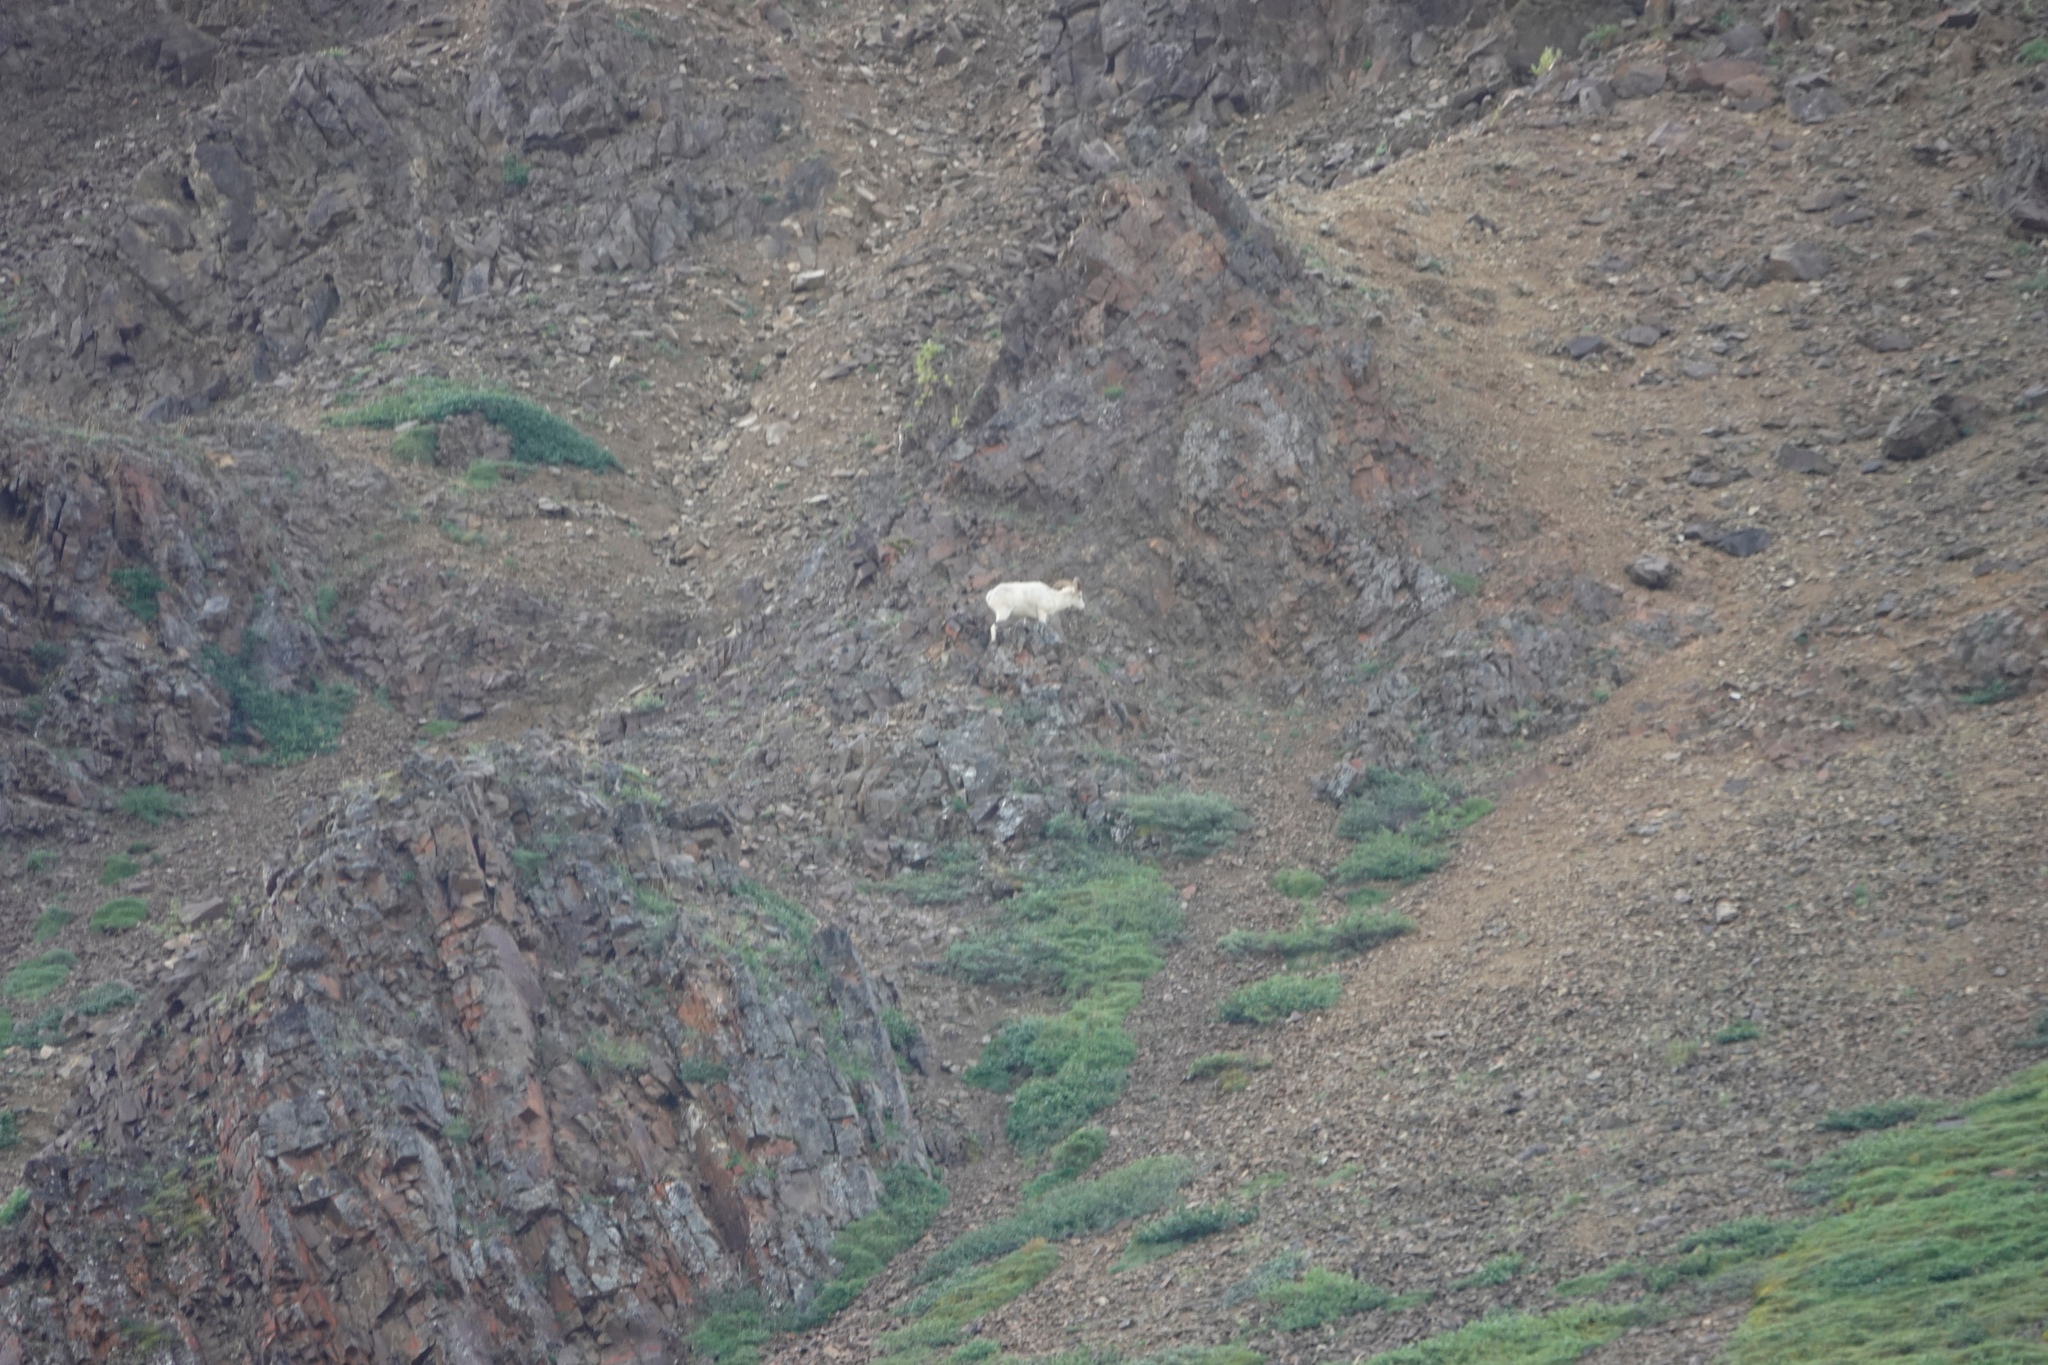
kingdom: Animalia
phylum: Chordata
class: Mammalia
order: Artiodactyla
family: Bovidae
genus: Ovis
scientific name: Ovis dalli
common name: Dall's sheep
